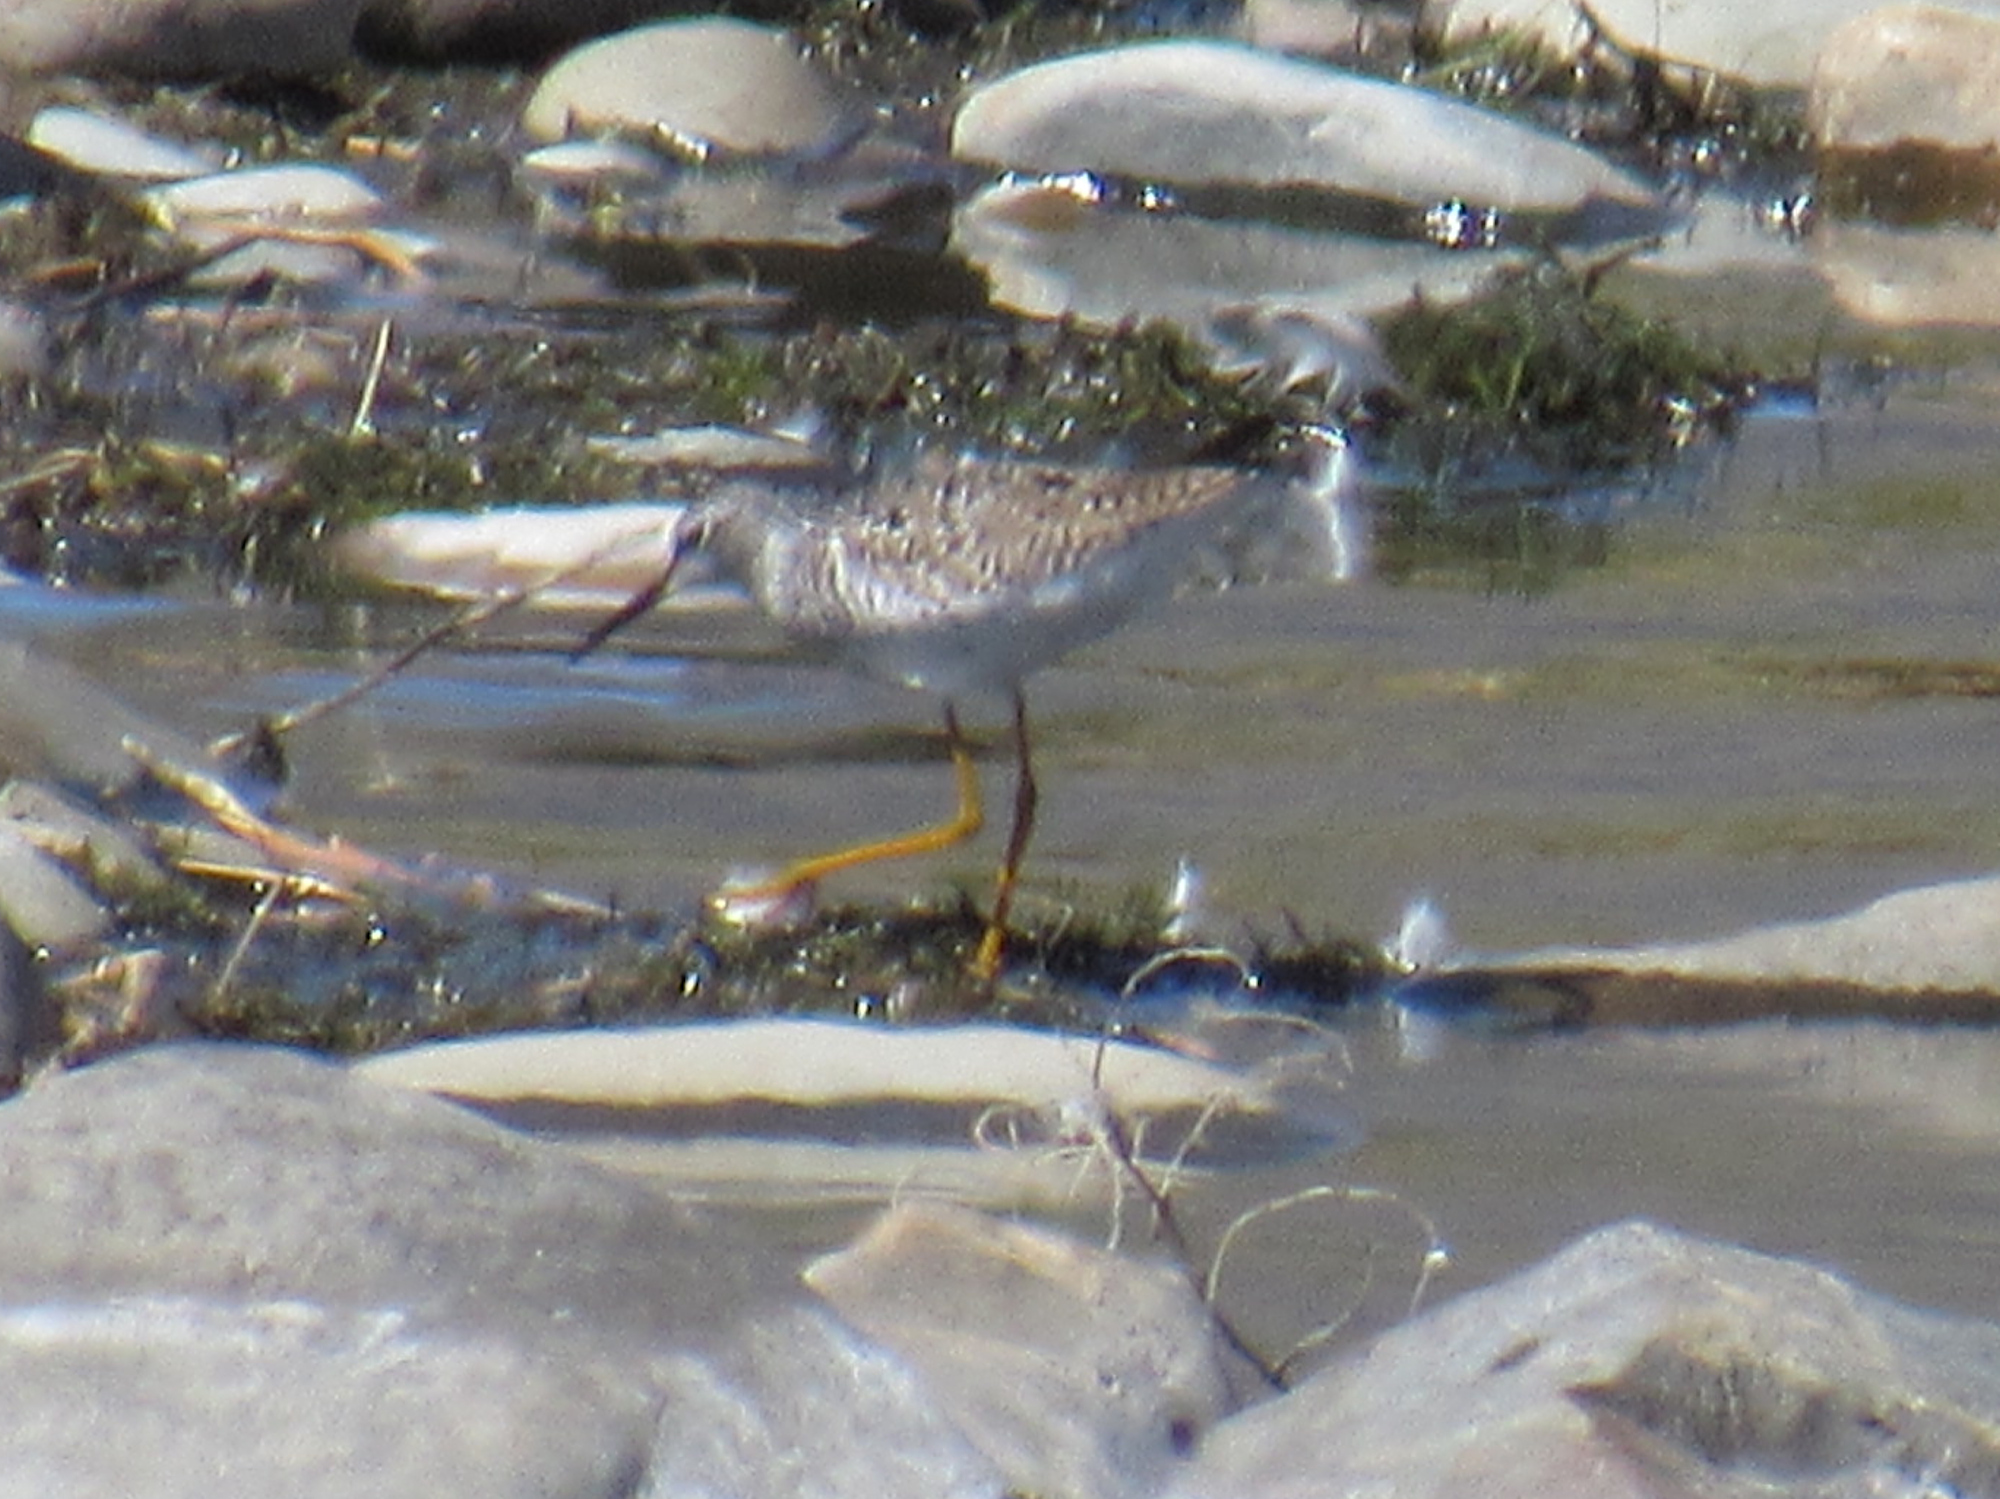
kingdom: Animalia
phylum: Chordata
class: Aves
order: Charadriiformes
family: Scolopacidae
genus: Tringa
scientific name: Tringa flavipes
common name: Lesser yellowlegs
